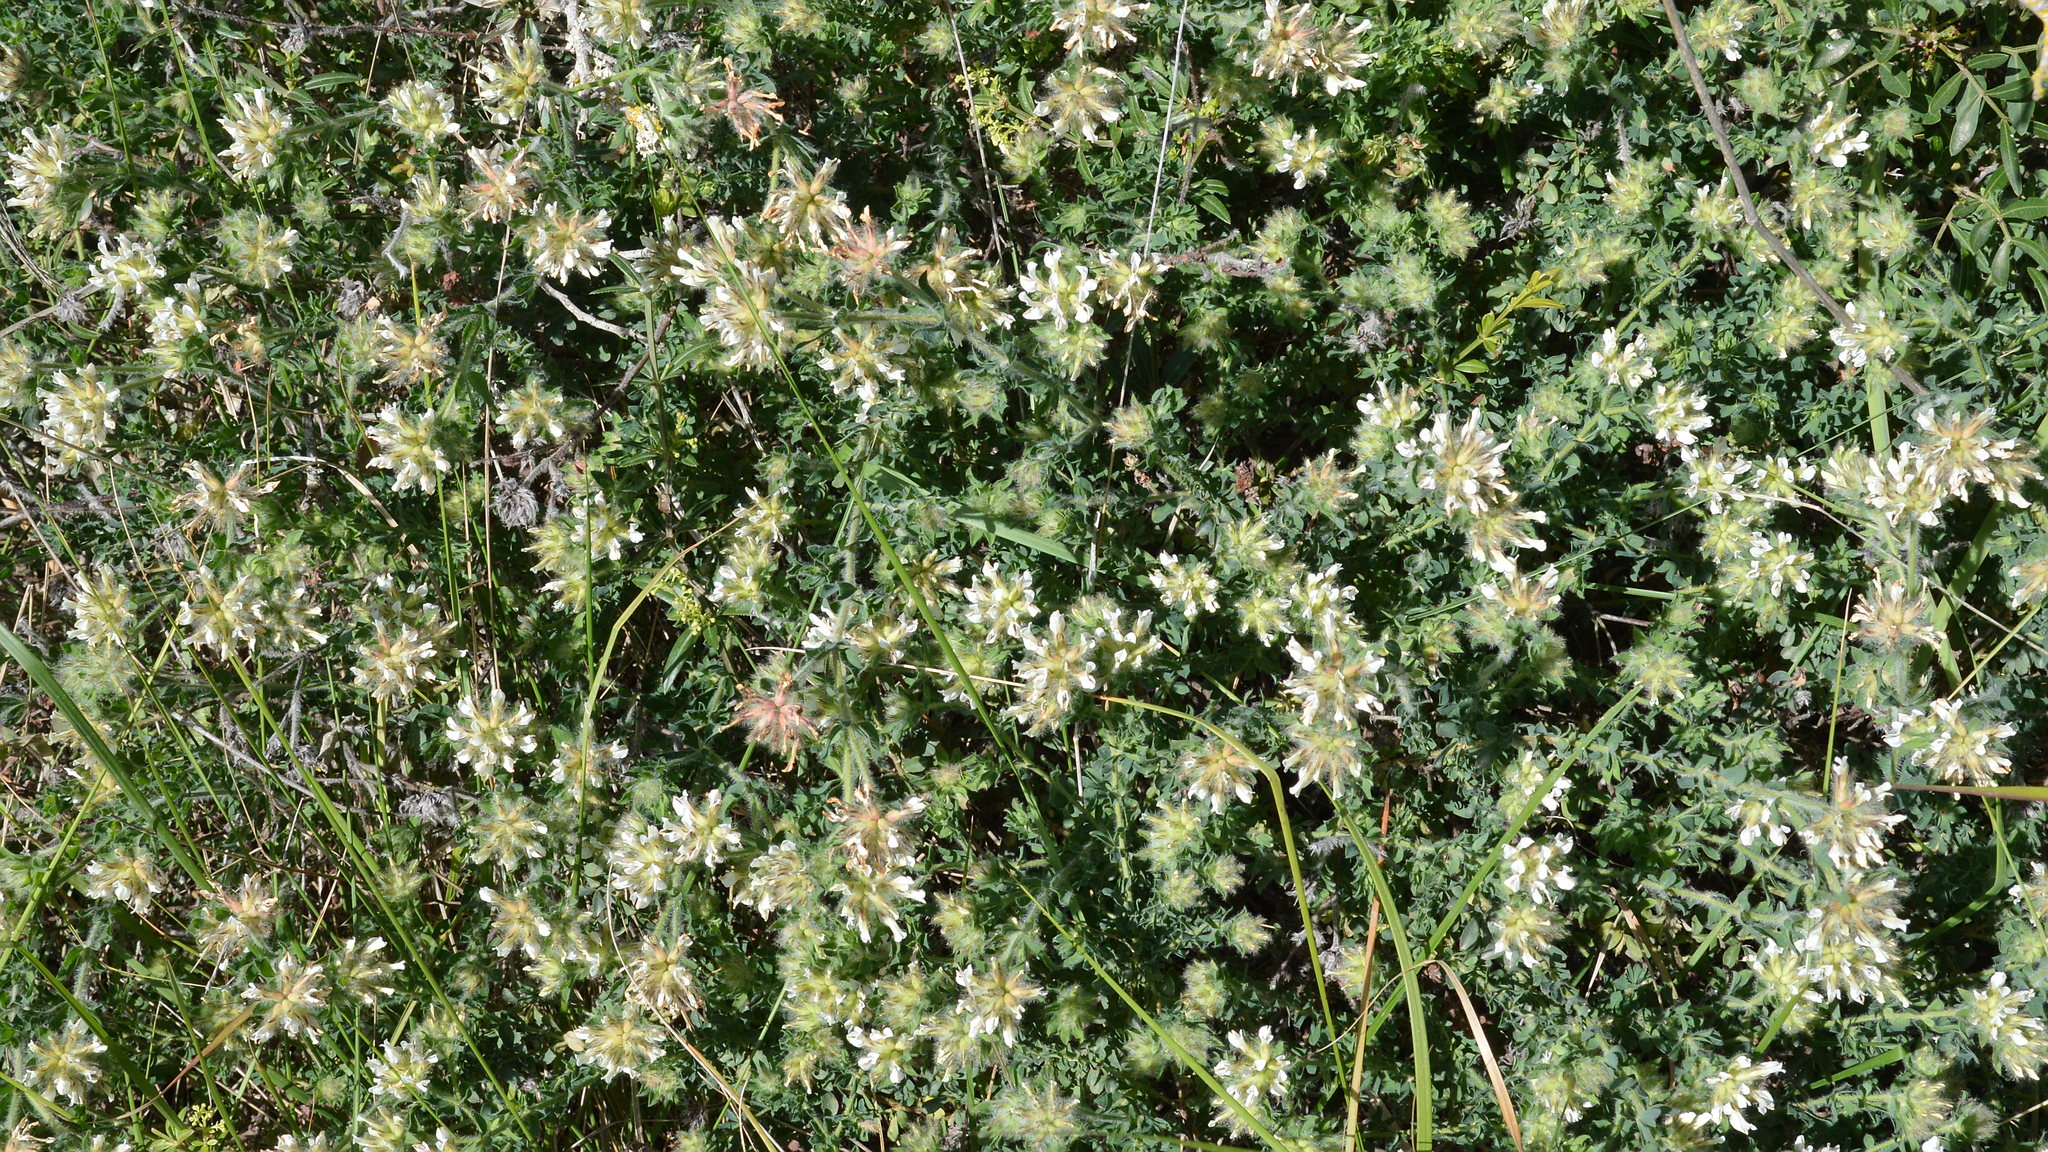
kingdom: Plantae
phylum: Tracheophyta
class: Magnoliopsida
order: Fabales
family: Fabaceae
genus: Lotus
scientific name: Lotus hirsutus
